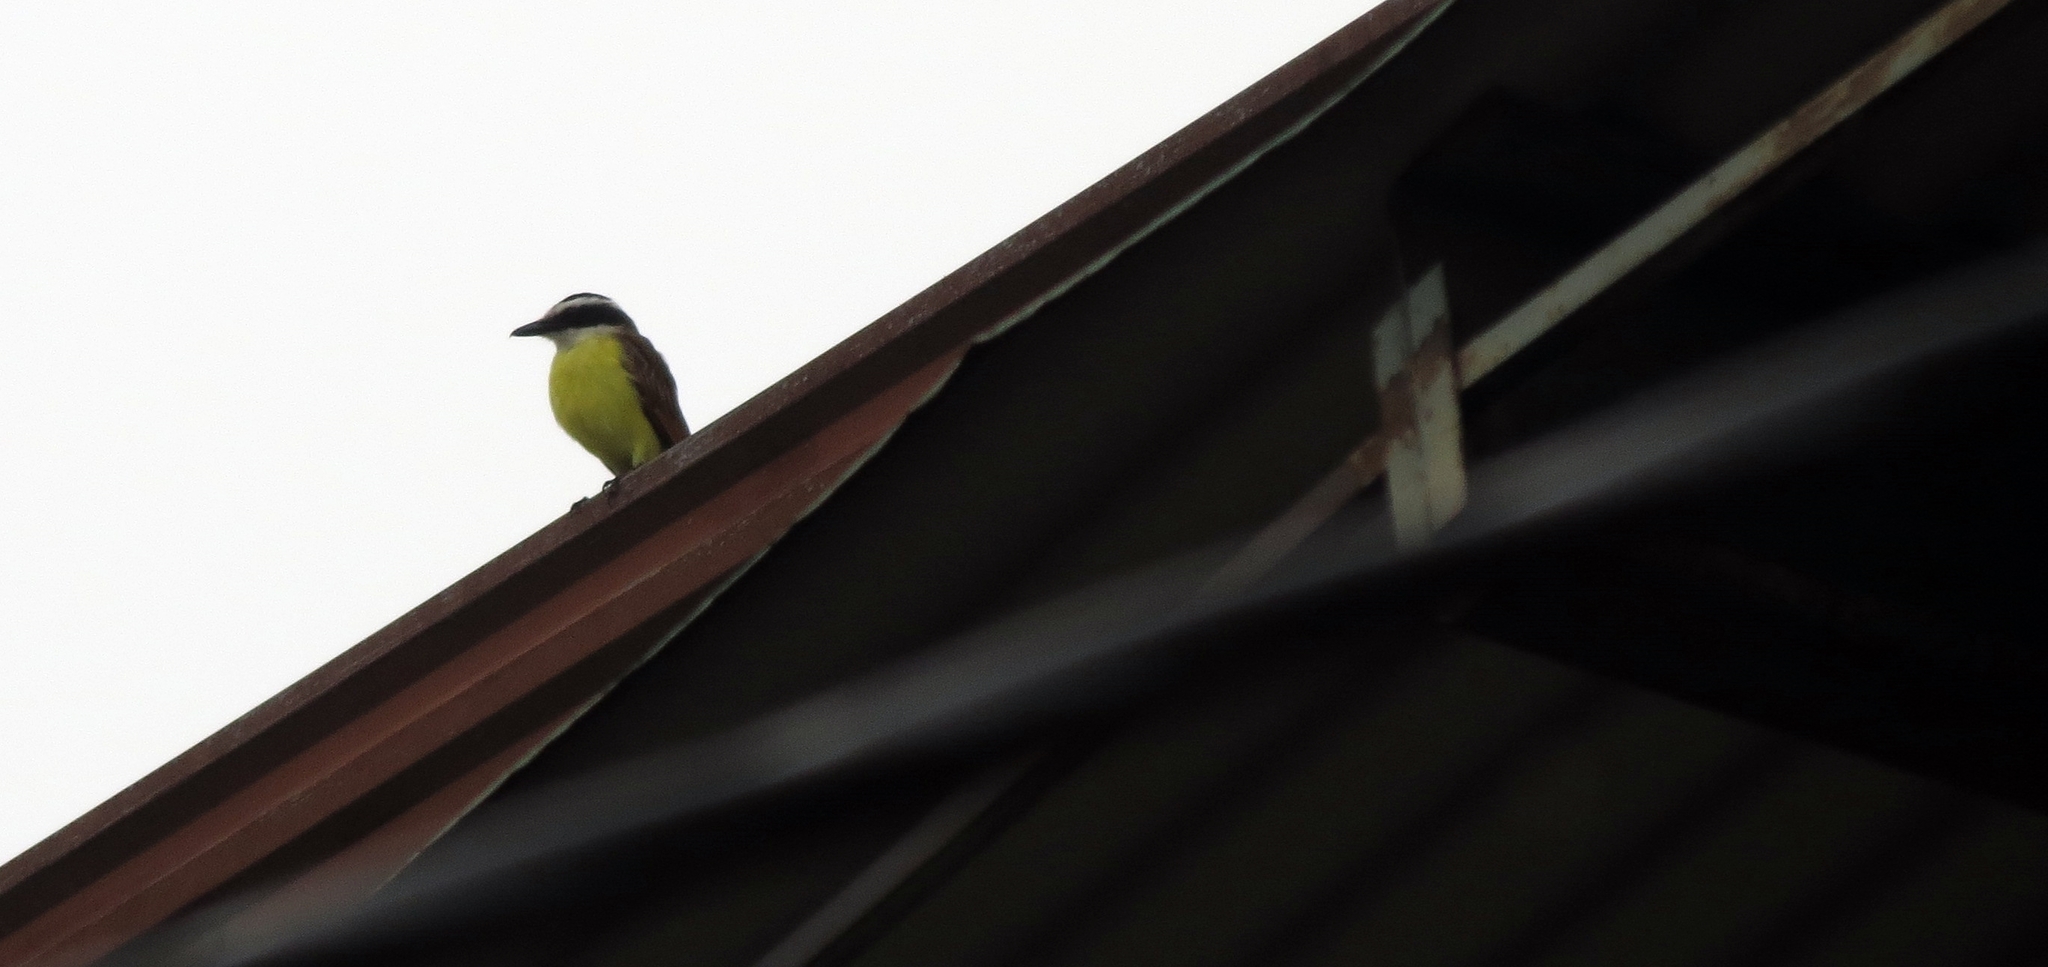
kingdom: Animalia
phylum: Chordata
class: Aves
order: Passeriformes
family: Tyrannidae
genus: Pitangus
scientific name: Pitangus sulphuratus
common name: Great kiskadee
